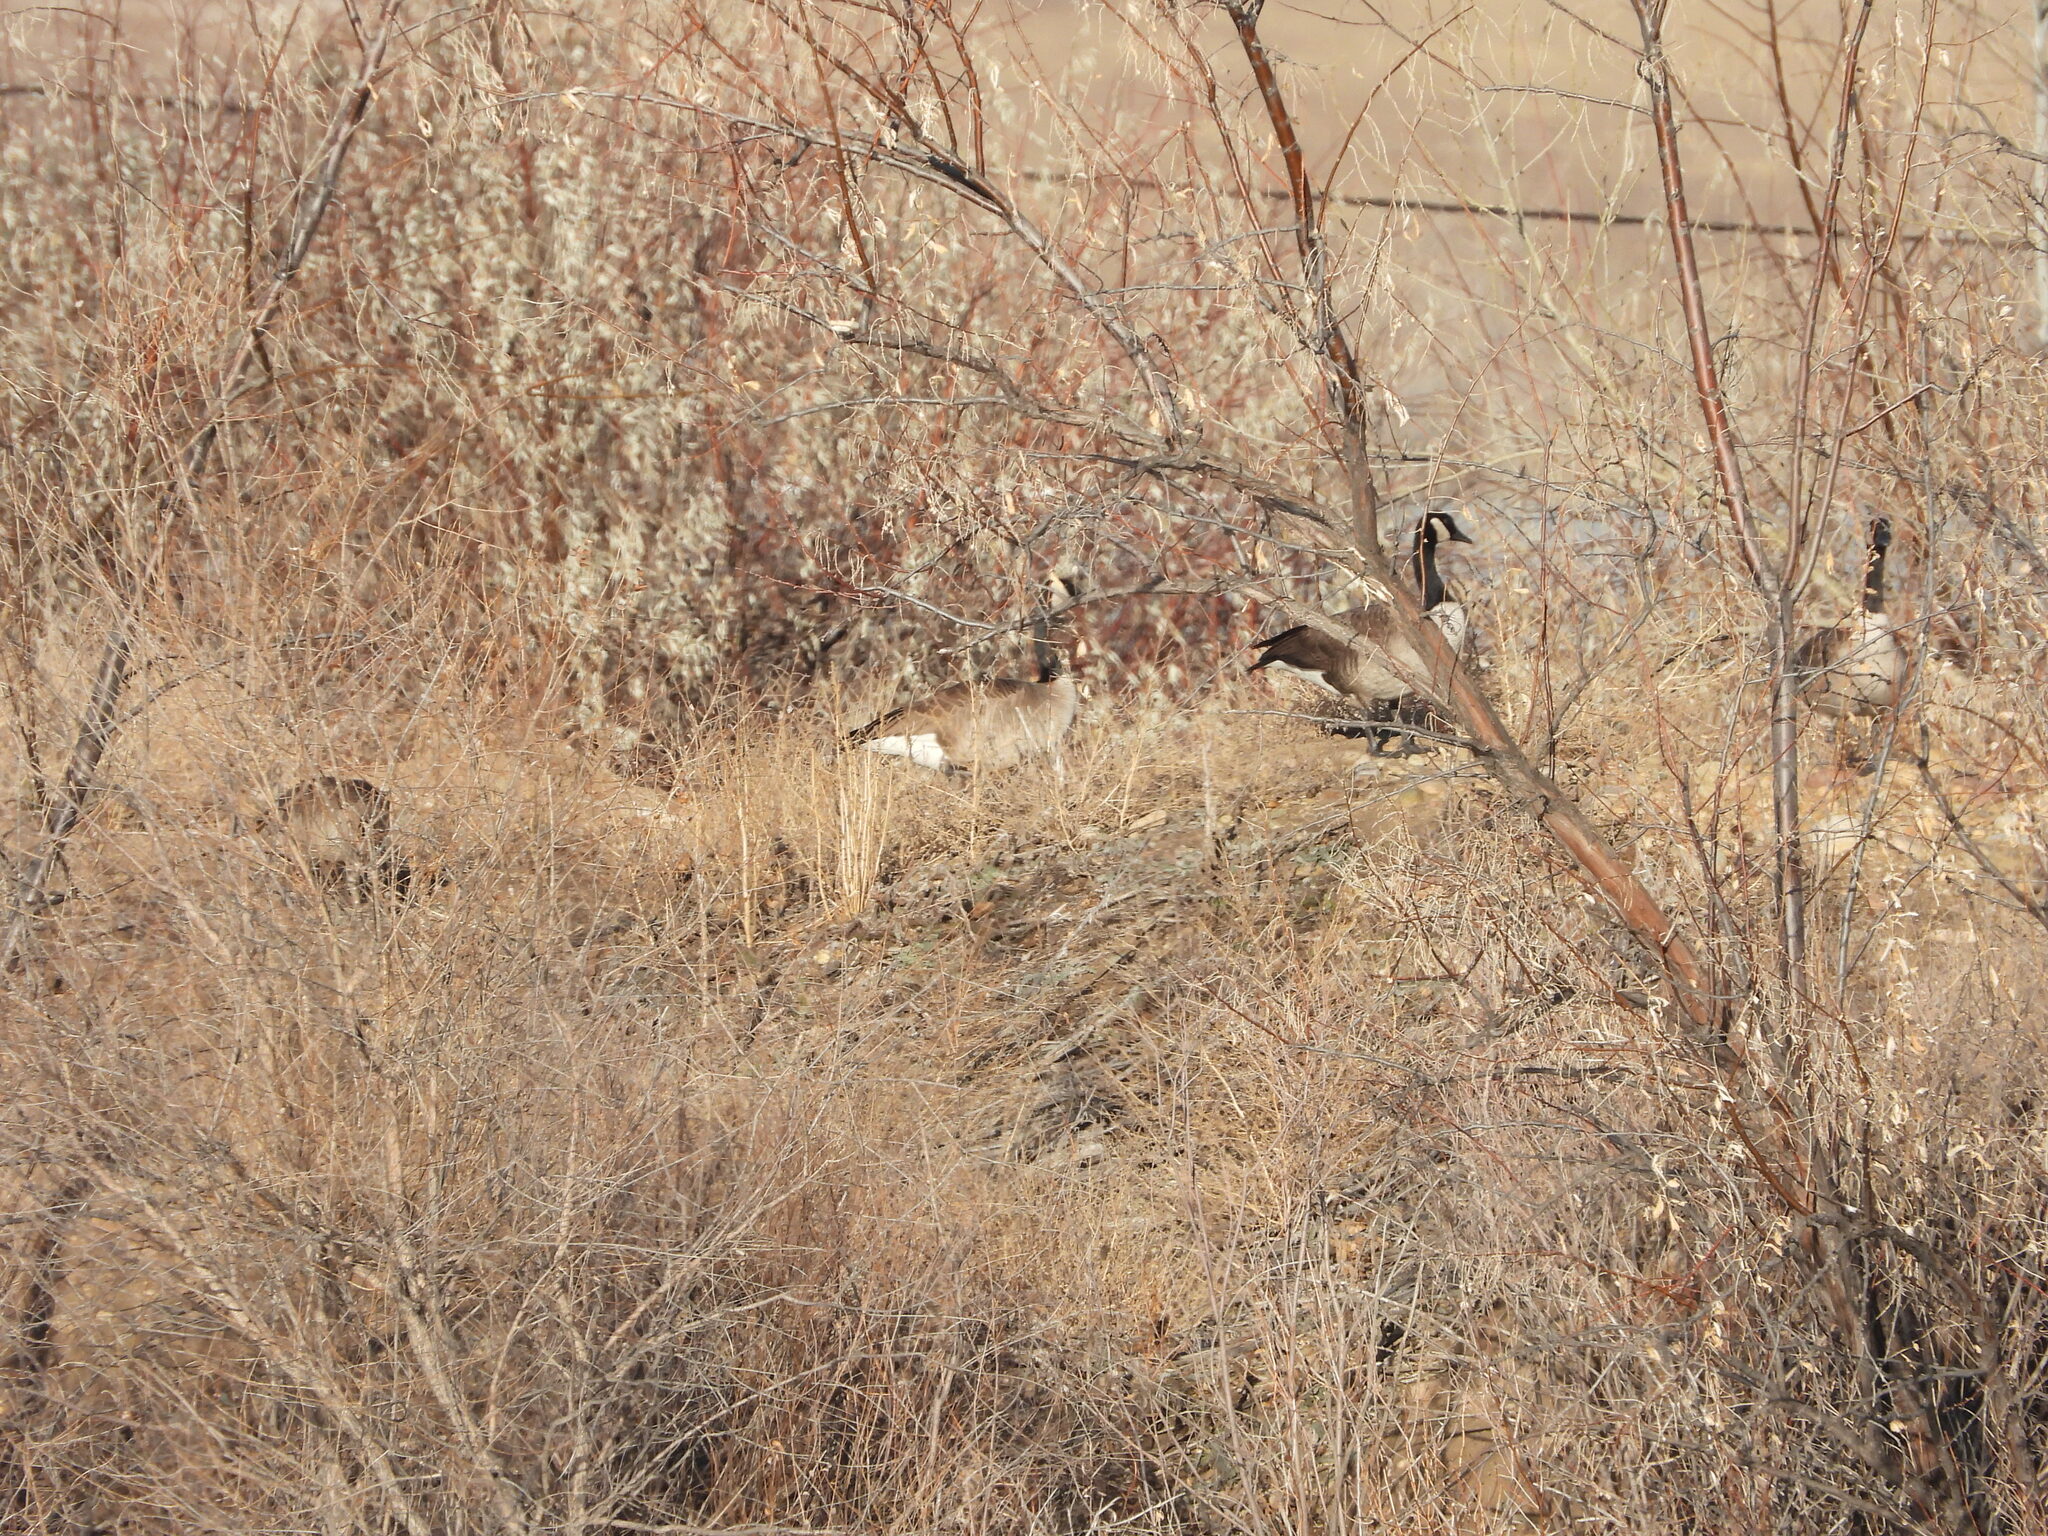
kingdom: Animalia
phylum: Chordata
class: Aves
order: Anseriformes
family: Anatidae
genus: Branta
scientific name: Branta canadensis
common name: Canada goose
